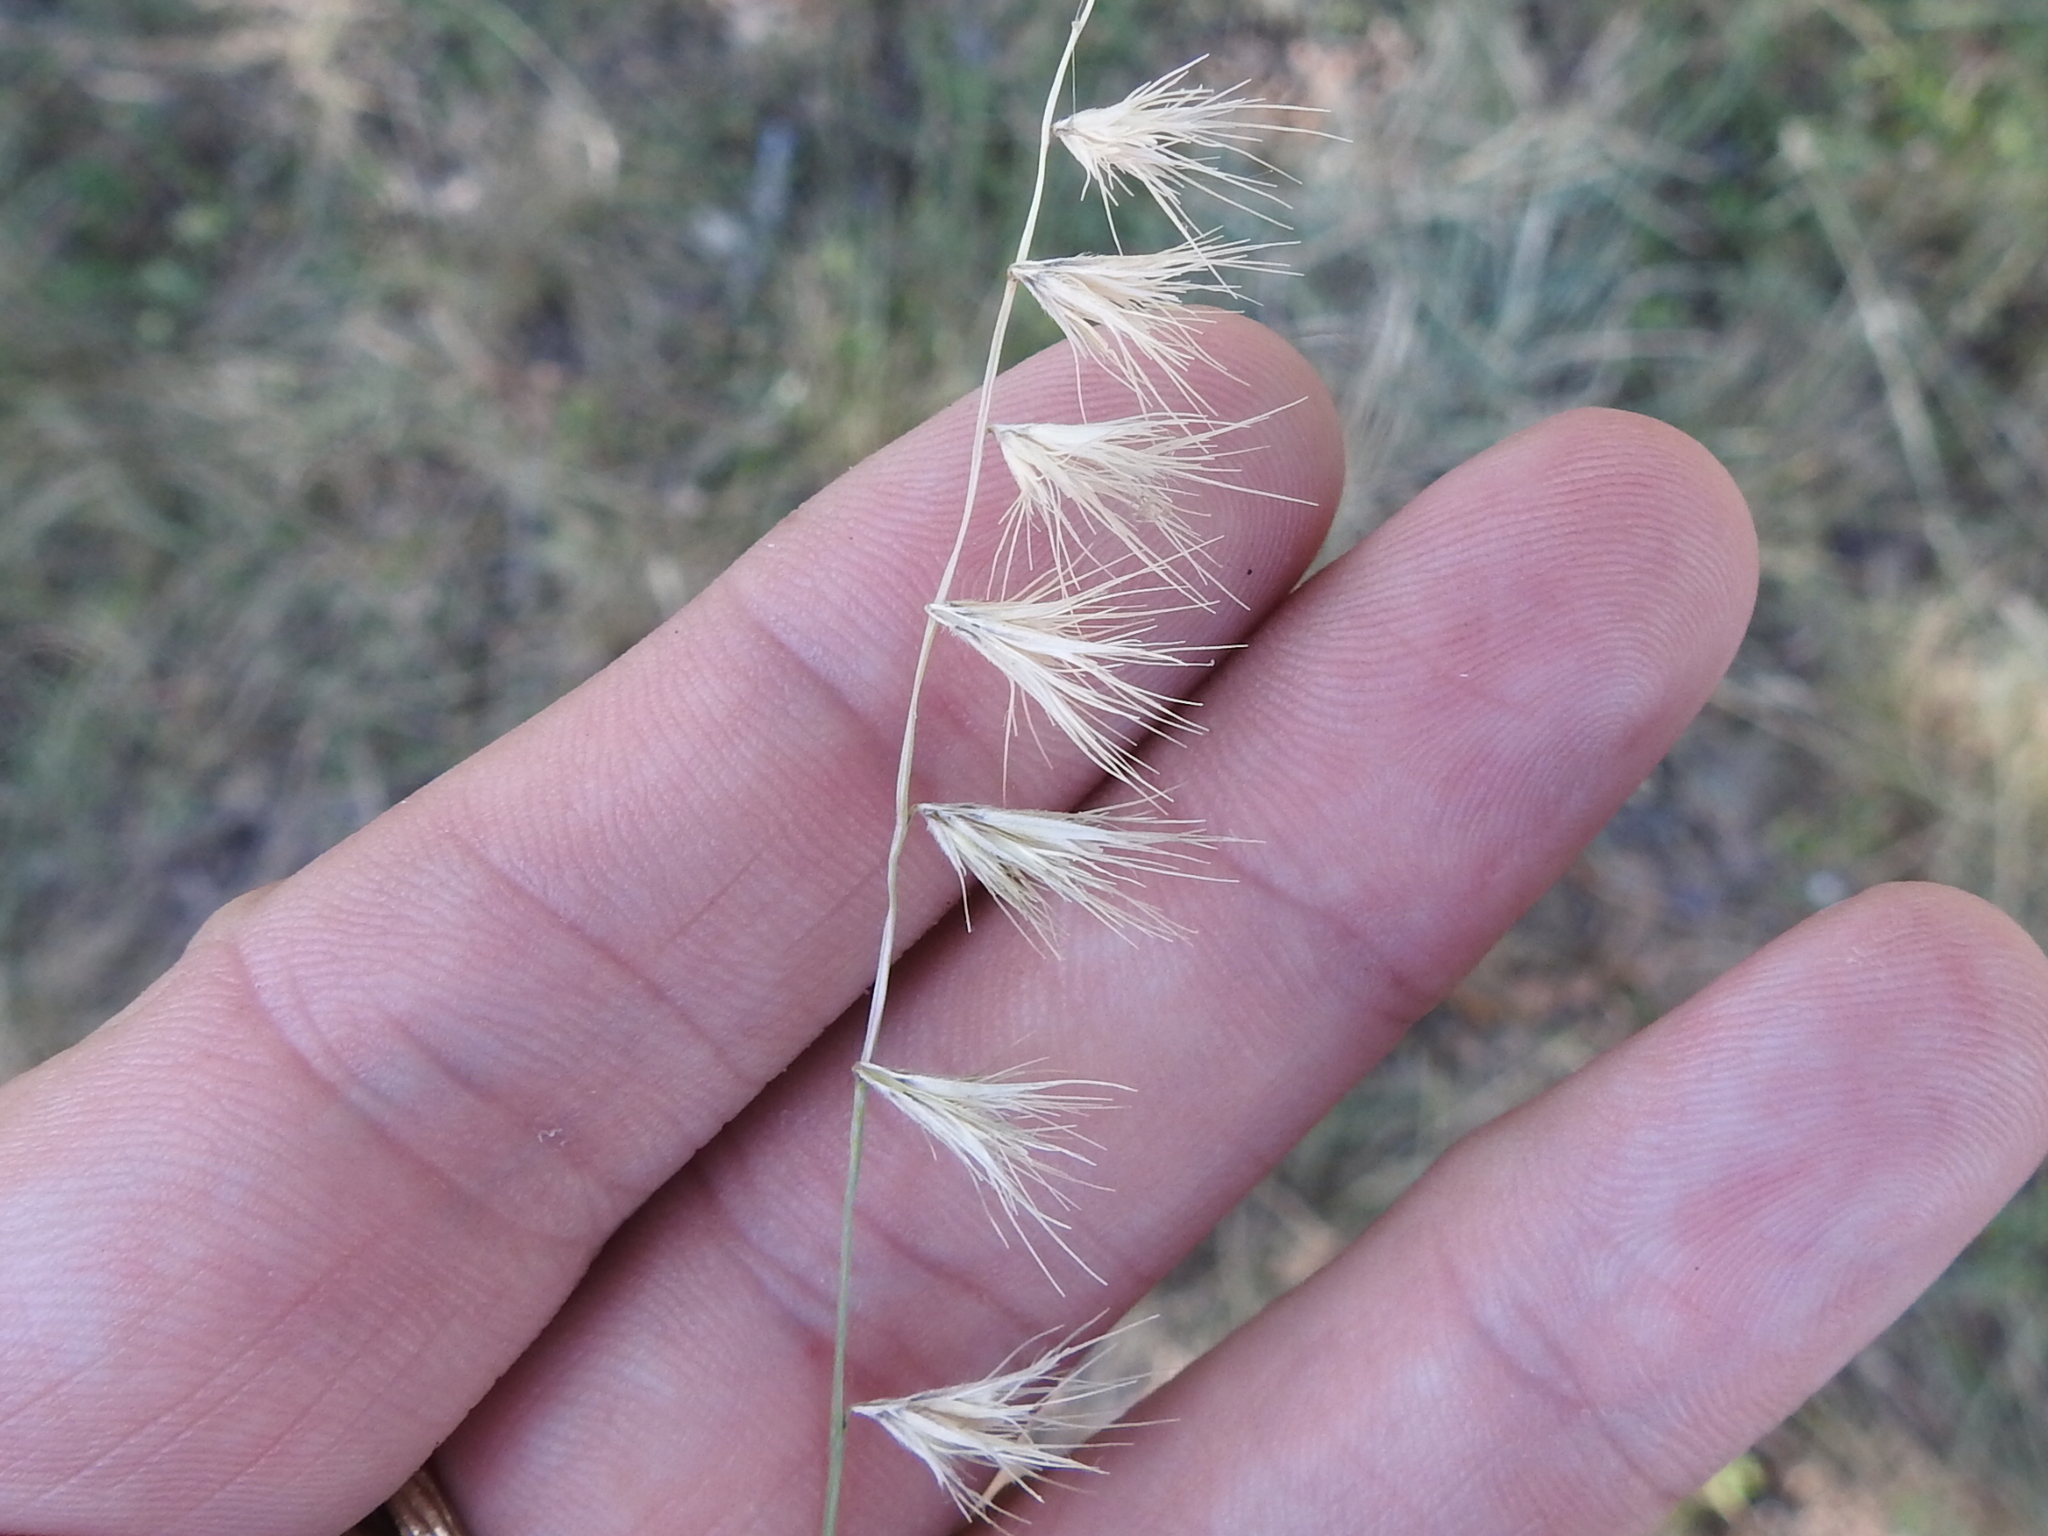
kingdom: Plantae
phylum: Tracheophyta
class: Liliopsida
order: Poales
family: Poaceae
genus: Bouteloua
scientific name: Bouteloua rigidiseta
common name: Texas grama
